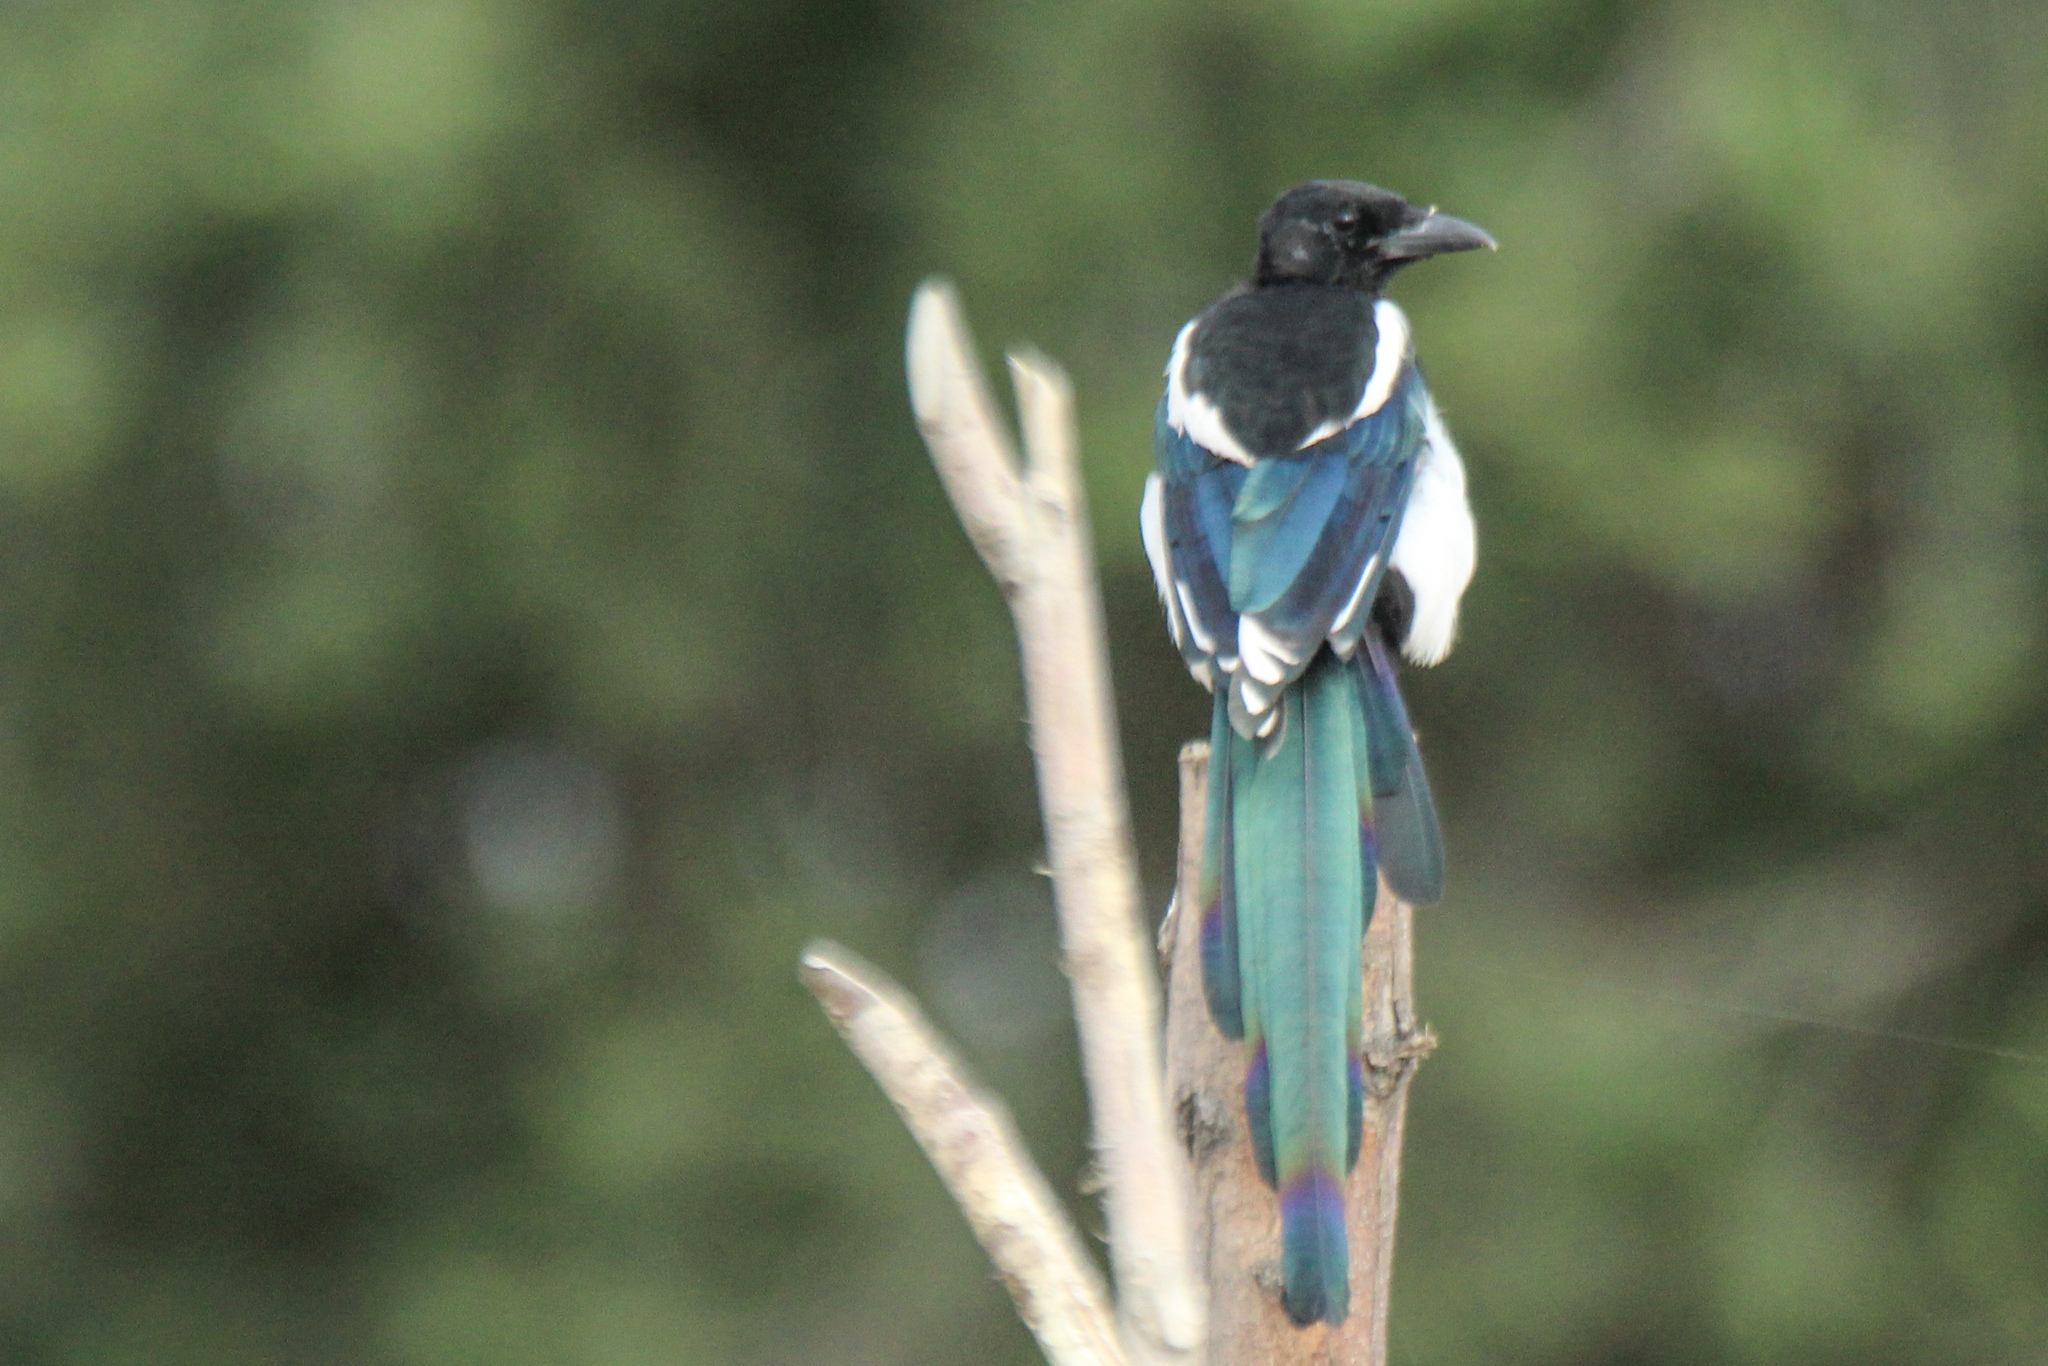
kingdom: Animalia
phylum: Chordata
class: Aves
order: Passeriformes
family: Corvidae
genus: Pica
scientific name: Pica pica
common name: Eurasian magpie
